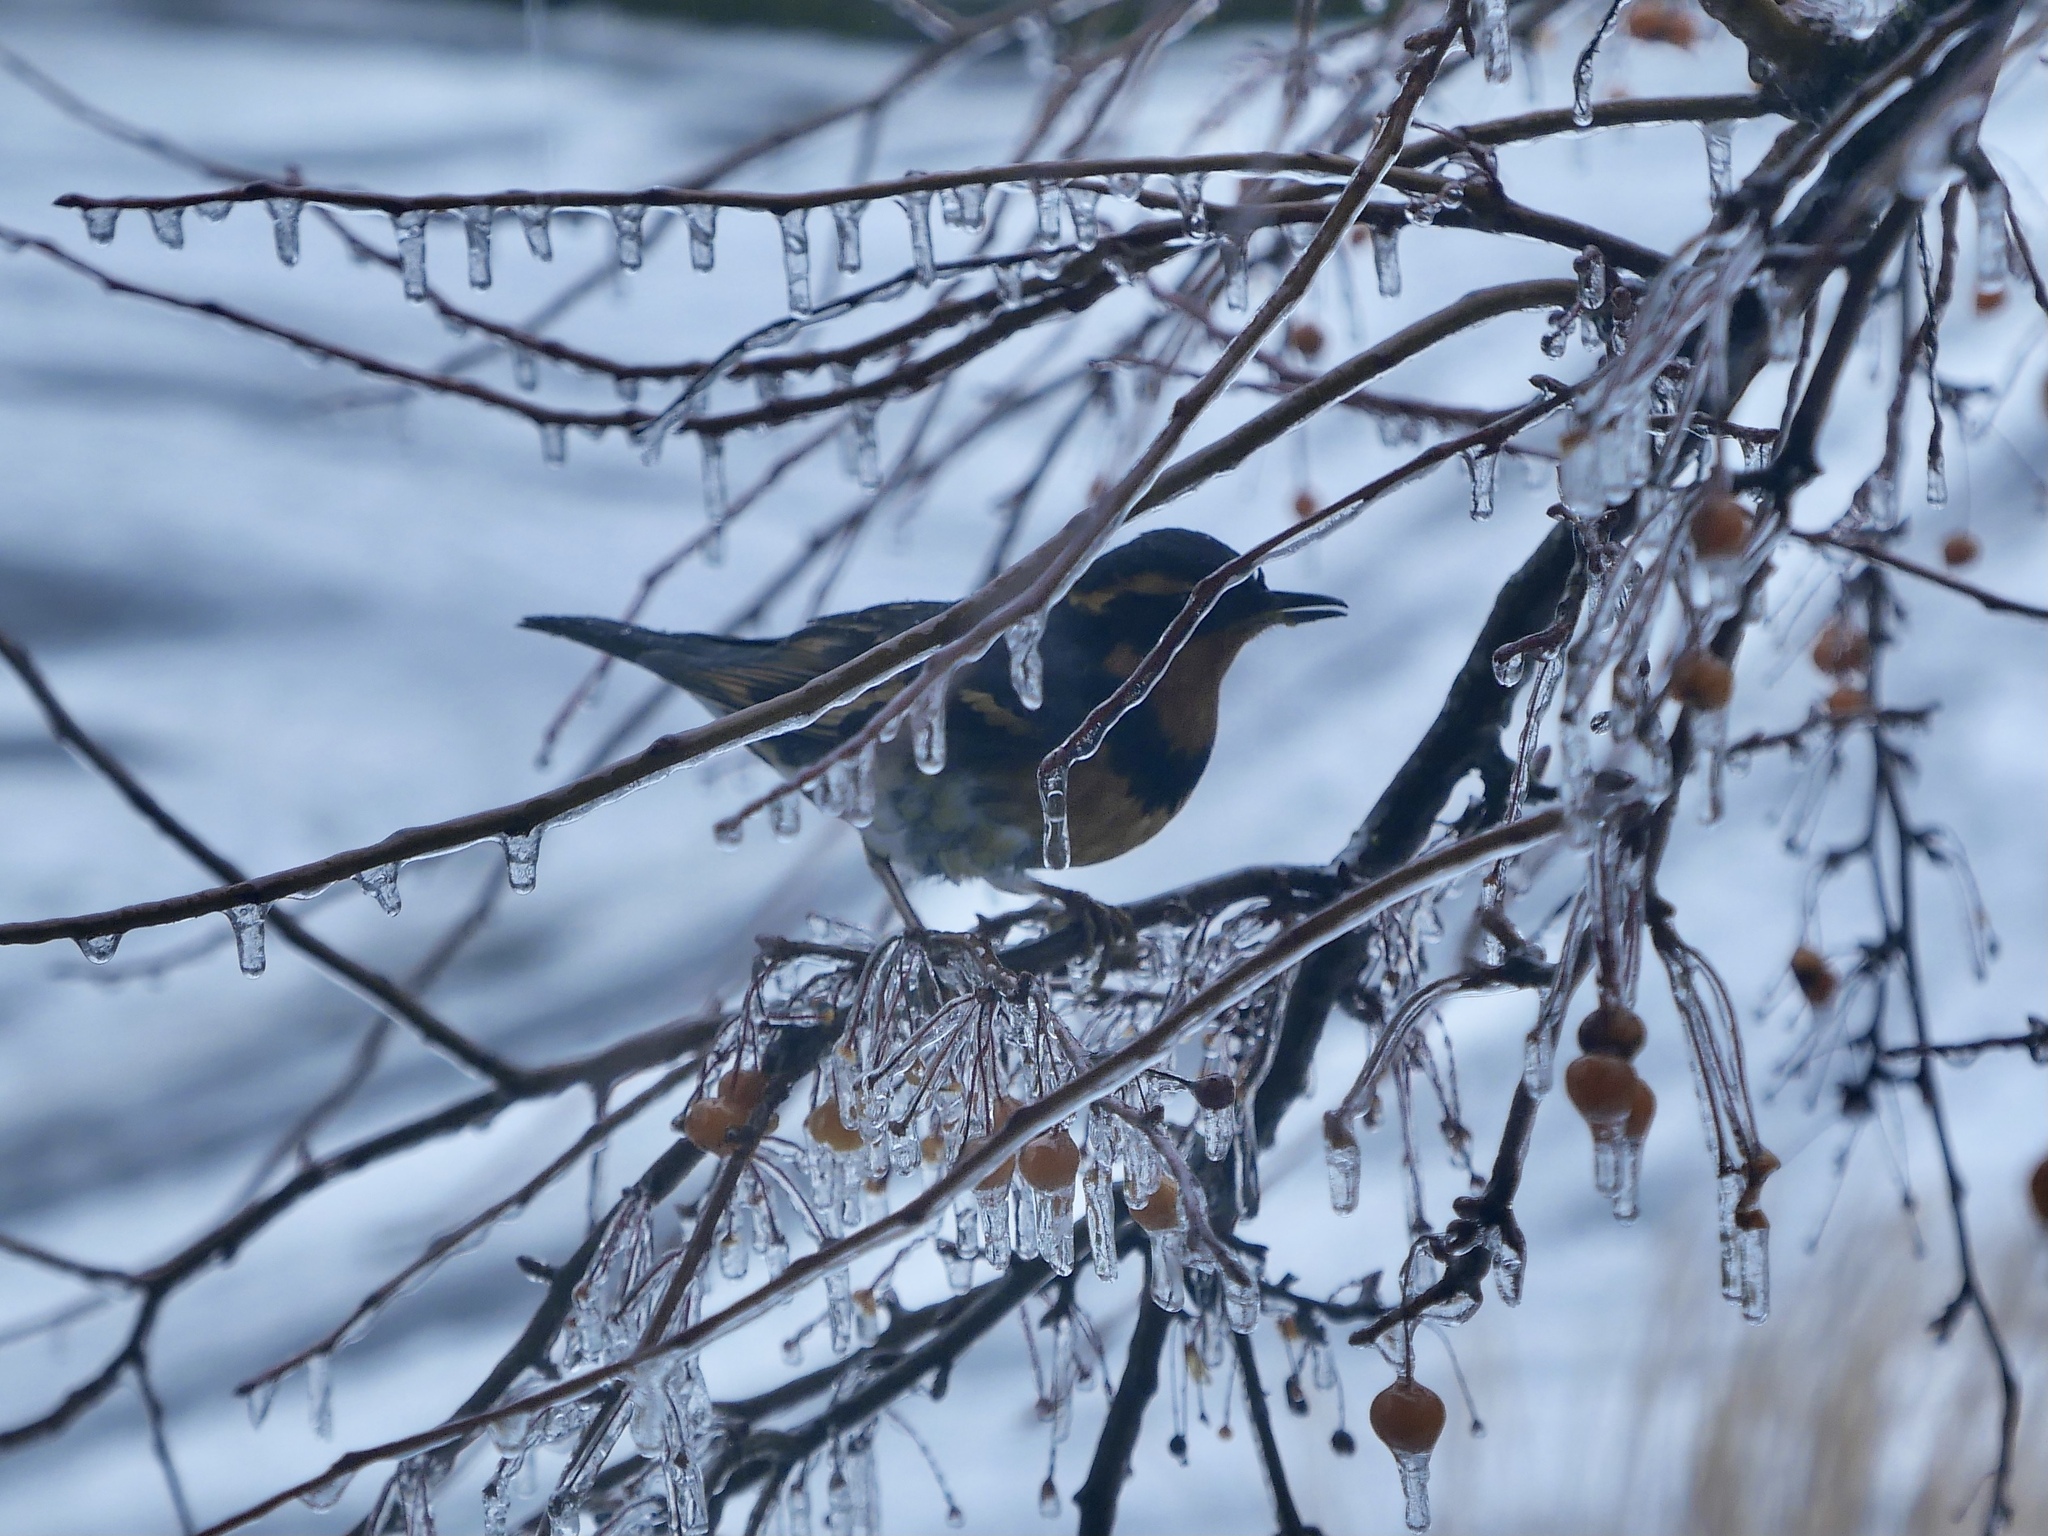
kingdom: Animalia
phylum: Chordata
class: Aves
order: Passeriformes
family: Turdidae
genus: Ixoreus
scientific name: Ixoreus naevius
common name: Varied thrush
